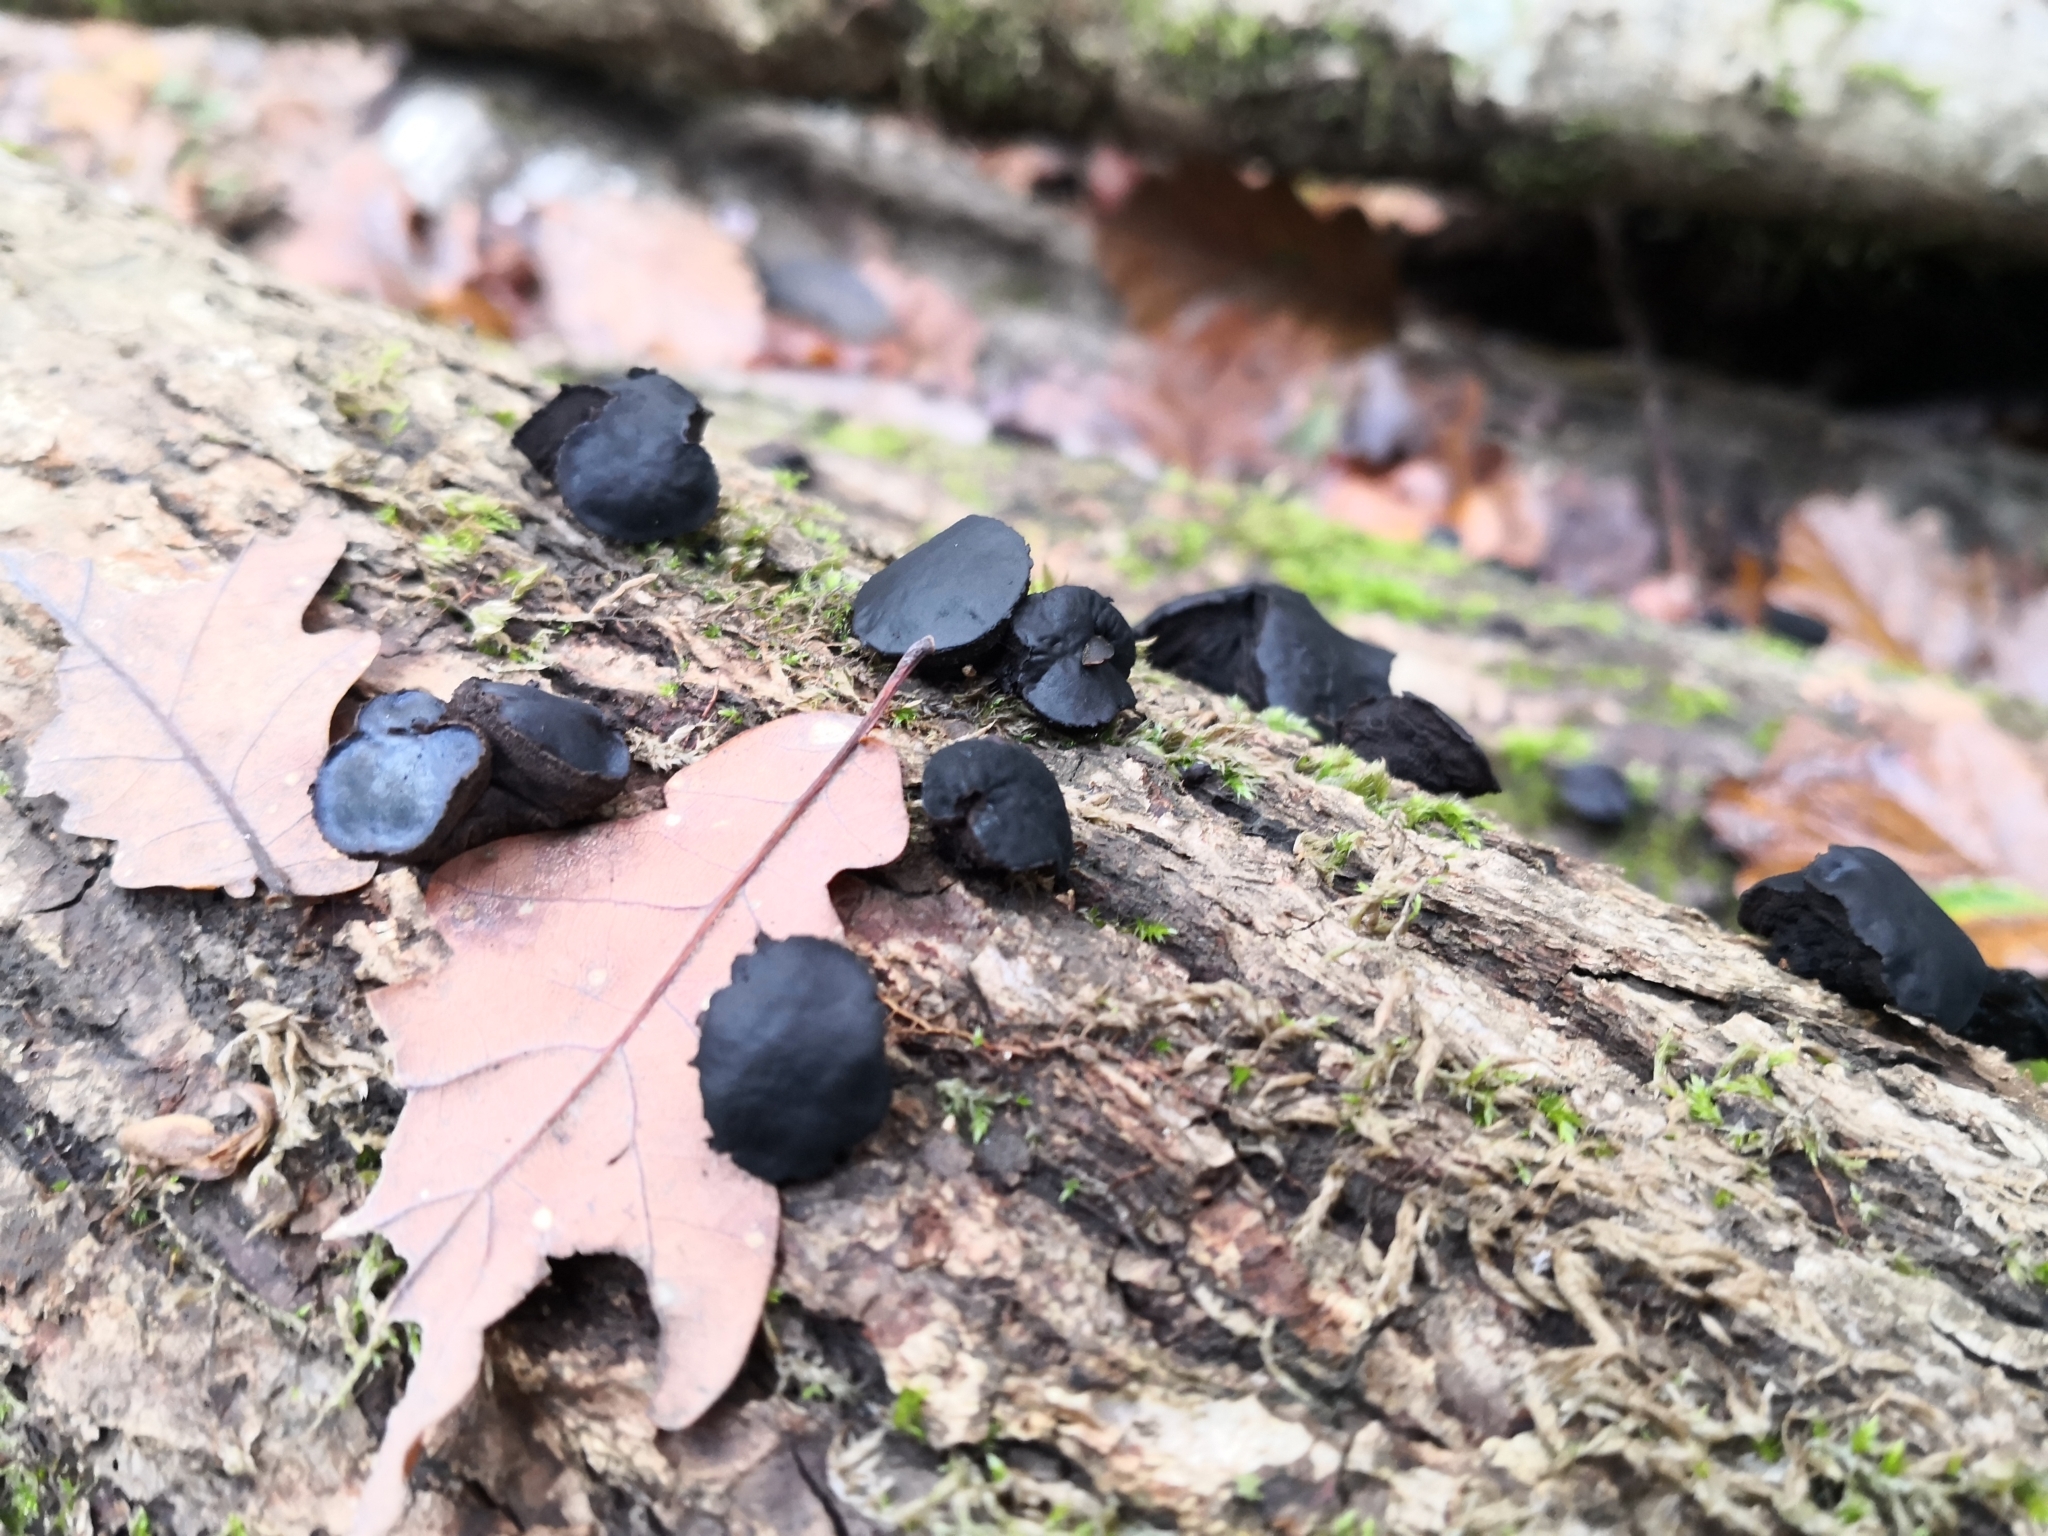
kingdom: Fungi
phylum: Ascomycota
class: Leotiomycetes
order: Phacidiales
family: Phacidiaceae
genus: Bulgaria
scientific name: Bulgaria inquinans
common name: Black bulgar
